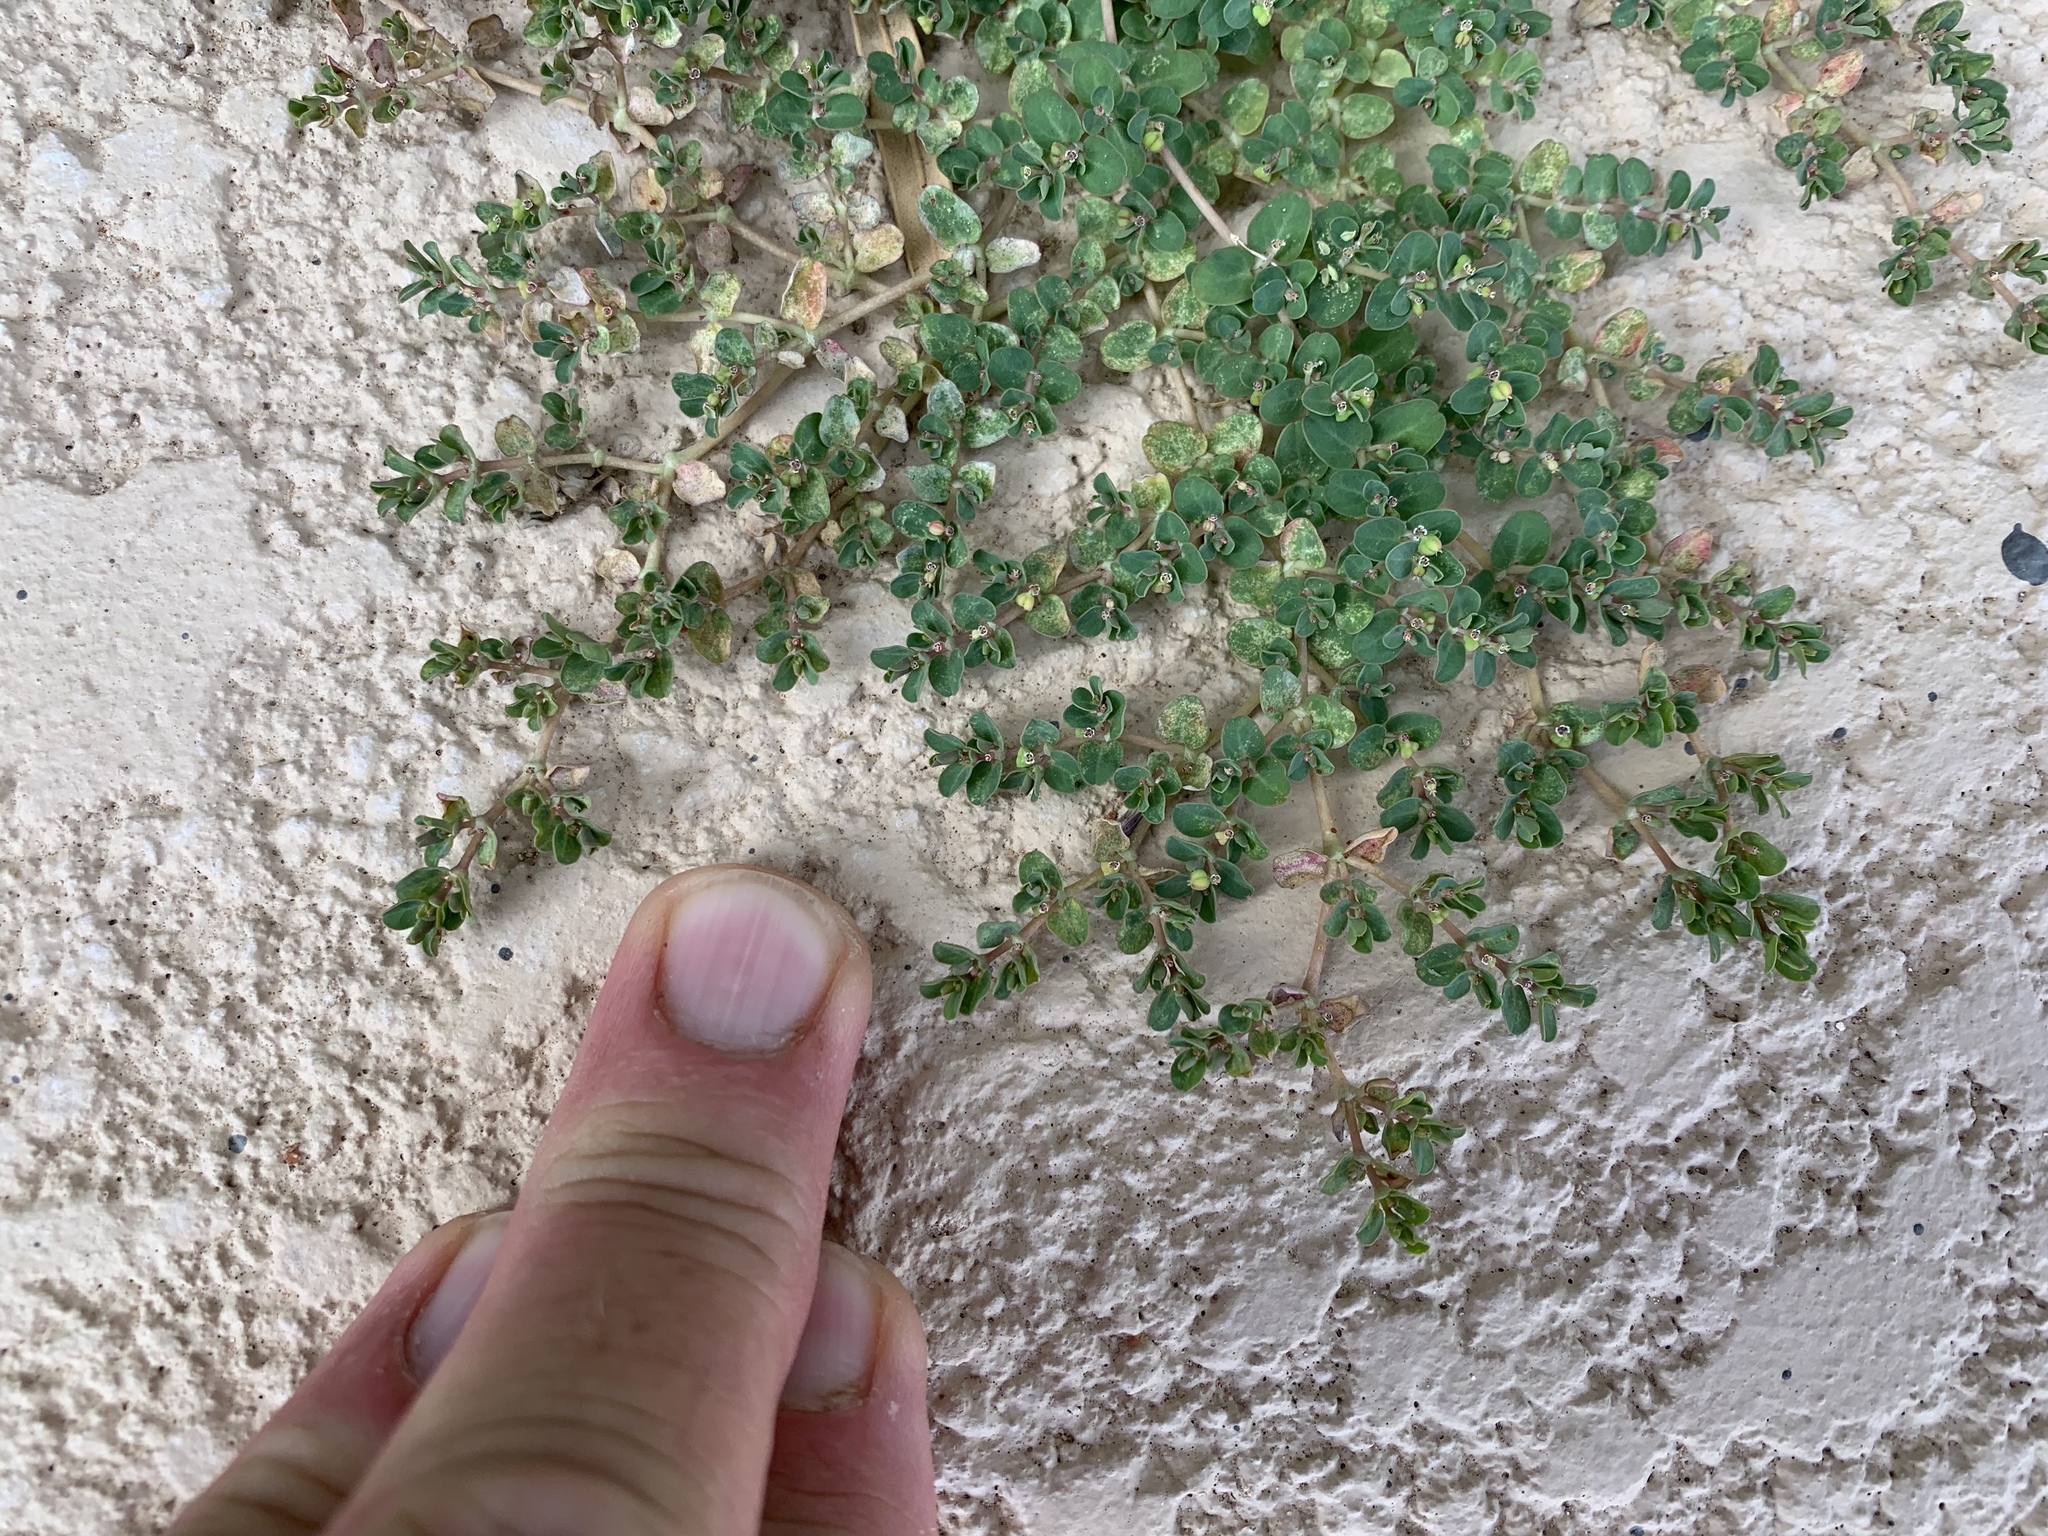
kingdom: Plantae
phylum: Tracheophyta
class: Magnoliopsida
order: Malpighiales
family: Euphorbiaceae
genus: Euphorbia
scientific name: Euphorbia serpens
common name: Matted sandmat
